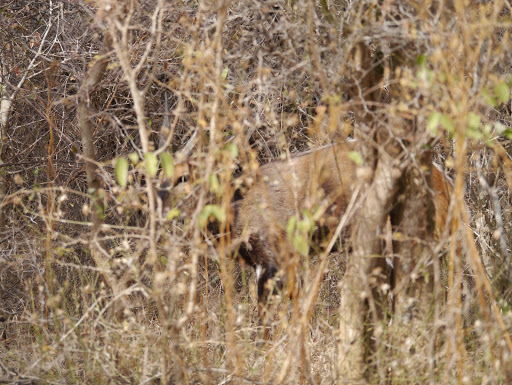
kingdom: Animalia
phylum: Chordata
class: Mammalia
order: Artiodactyla
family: Bovidae
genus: Tragelaphus
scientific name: Tragelaphus scriptus
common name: Bushbuck
